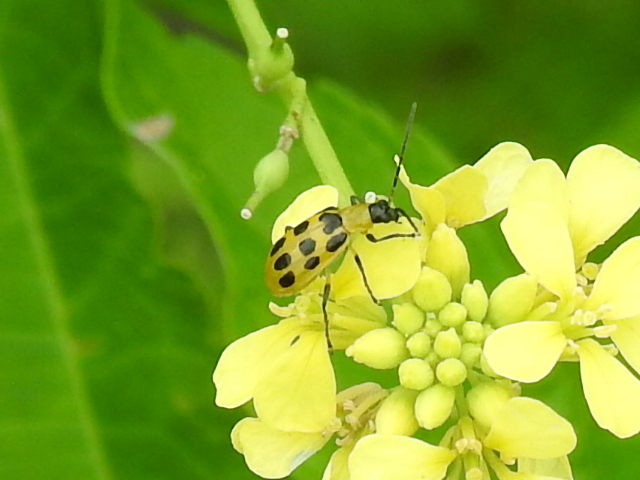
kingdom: Animalia
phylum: Arthropoda
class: Insecta
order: Coleoptera
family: Chrysomelidae
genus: Diabrotica
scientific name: Diabrotica undecimpunctata
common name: Spotted cucumber beetle
